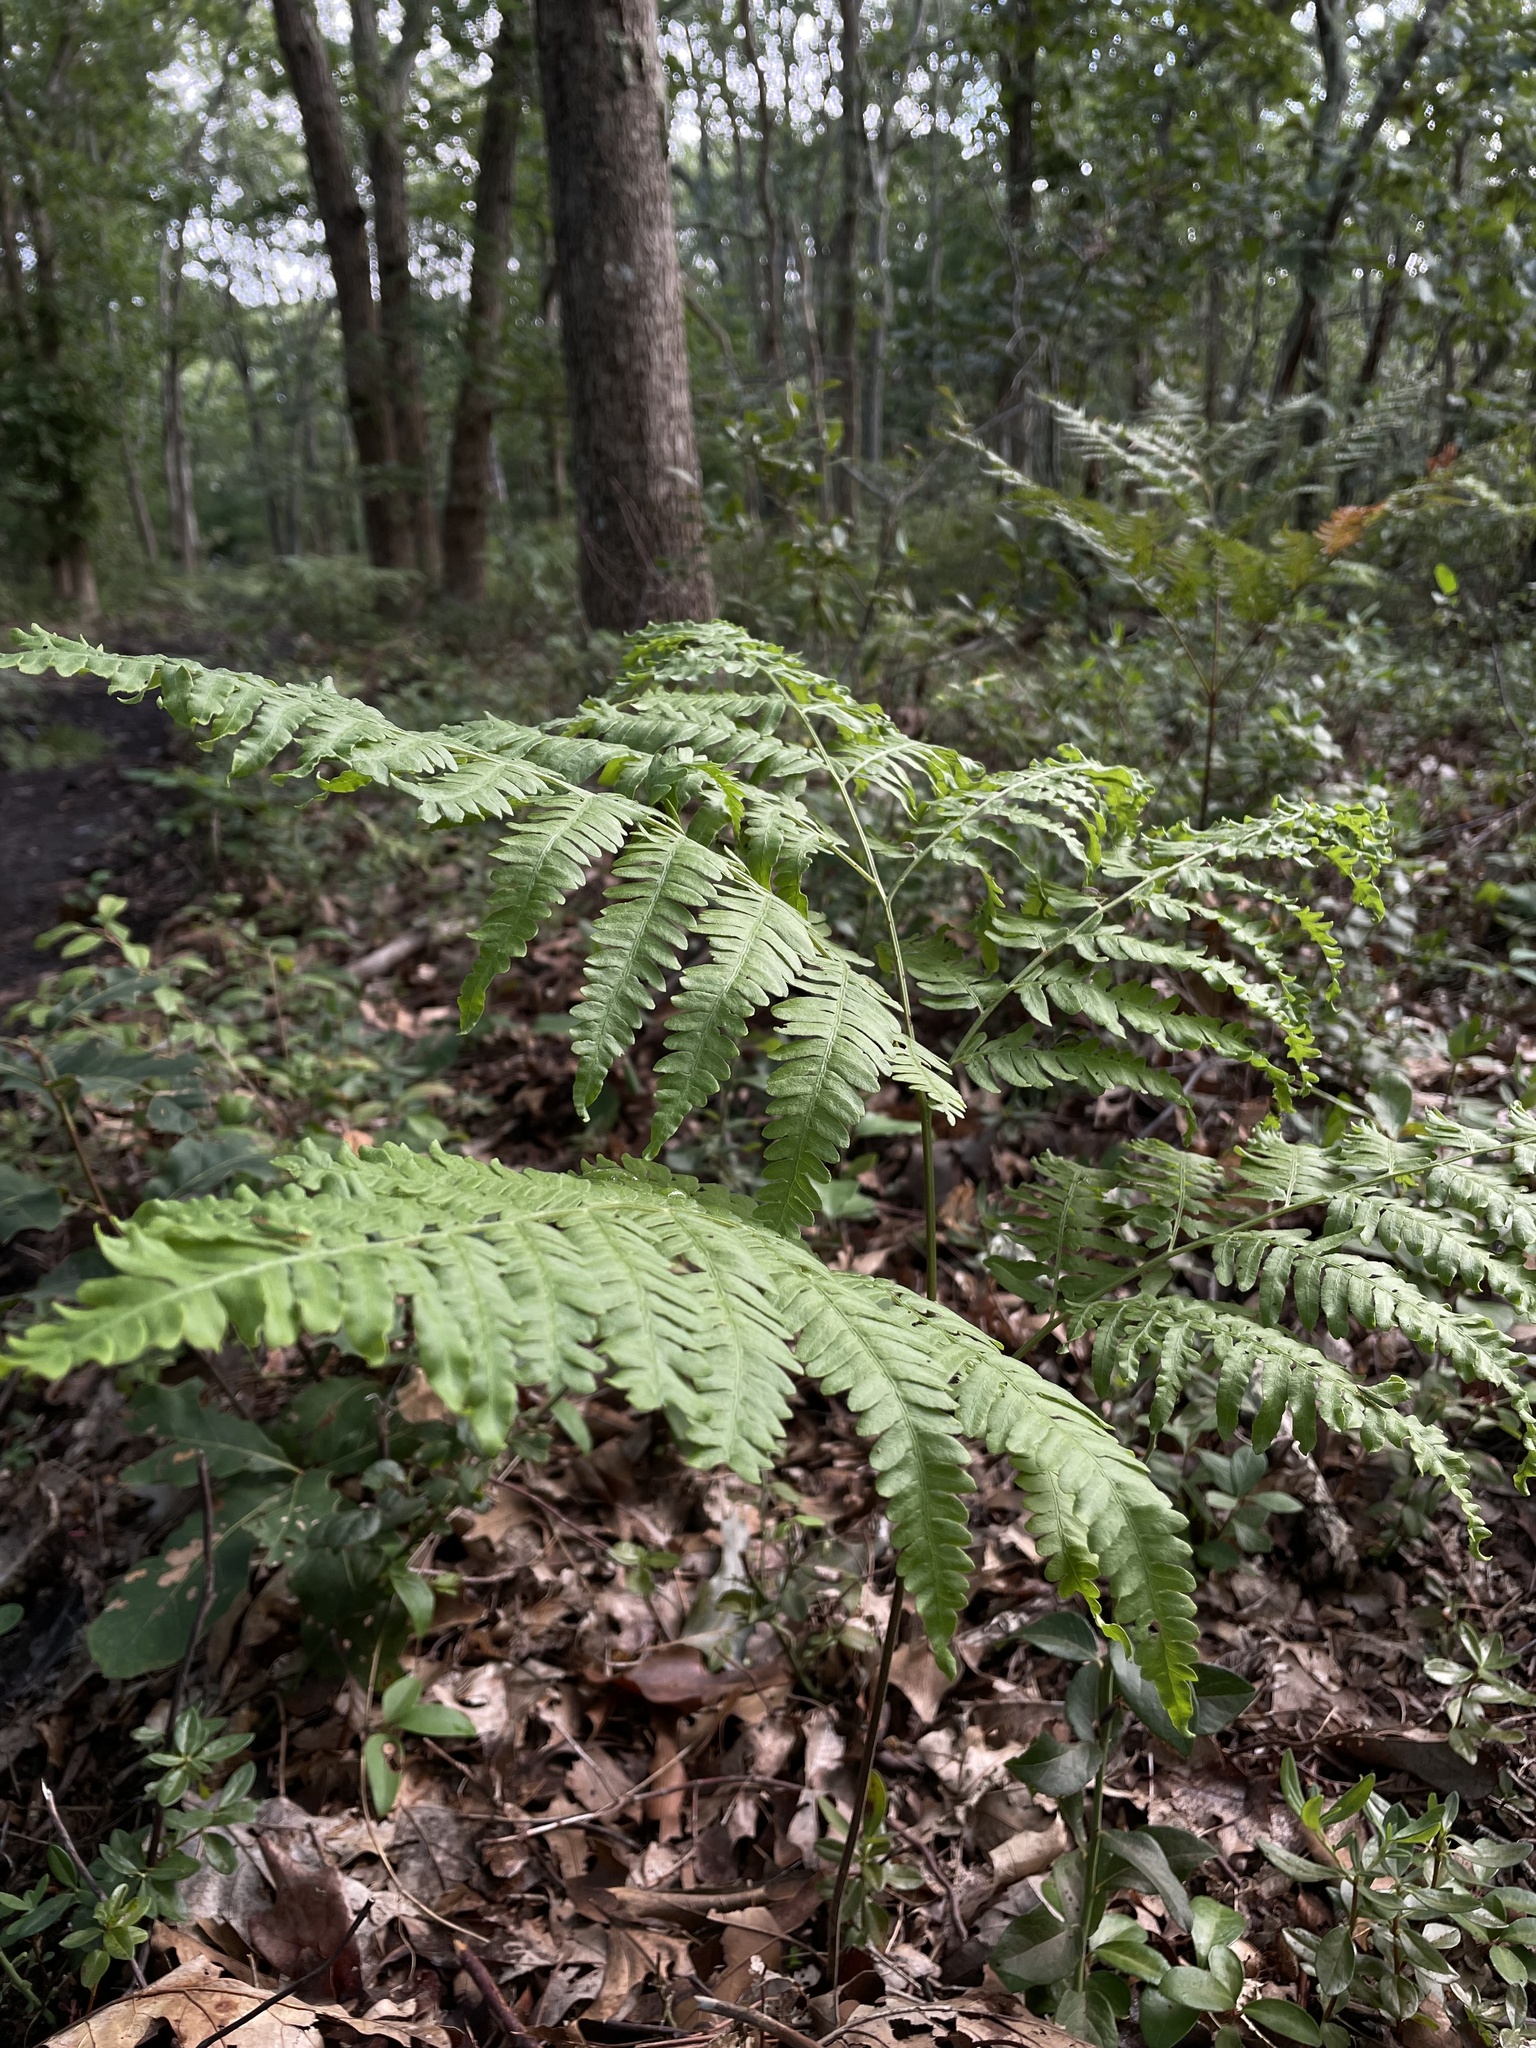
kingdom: Plantae
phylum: Tracheophyta
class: Polypodiopsida
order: Polypodiales
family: Dennstaedtiaceae
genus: Pteridium
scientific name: Pteridium aquilinum
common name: Bracken
